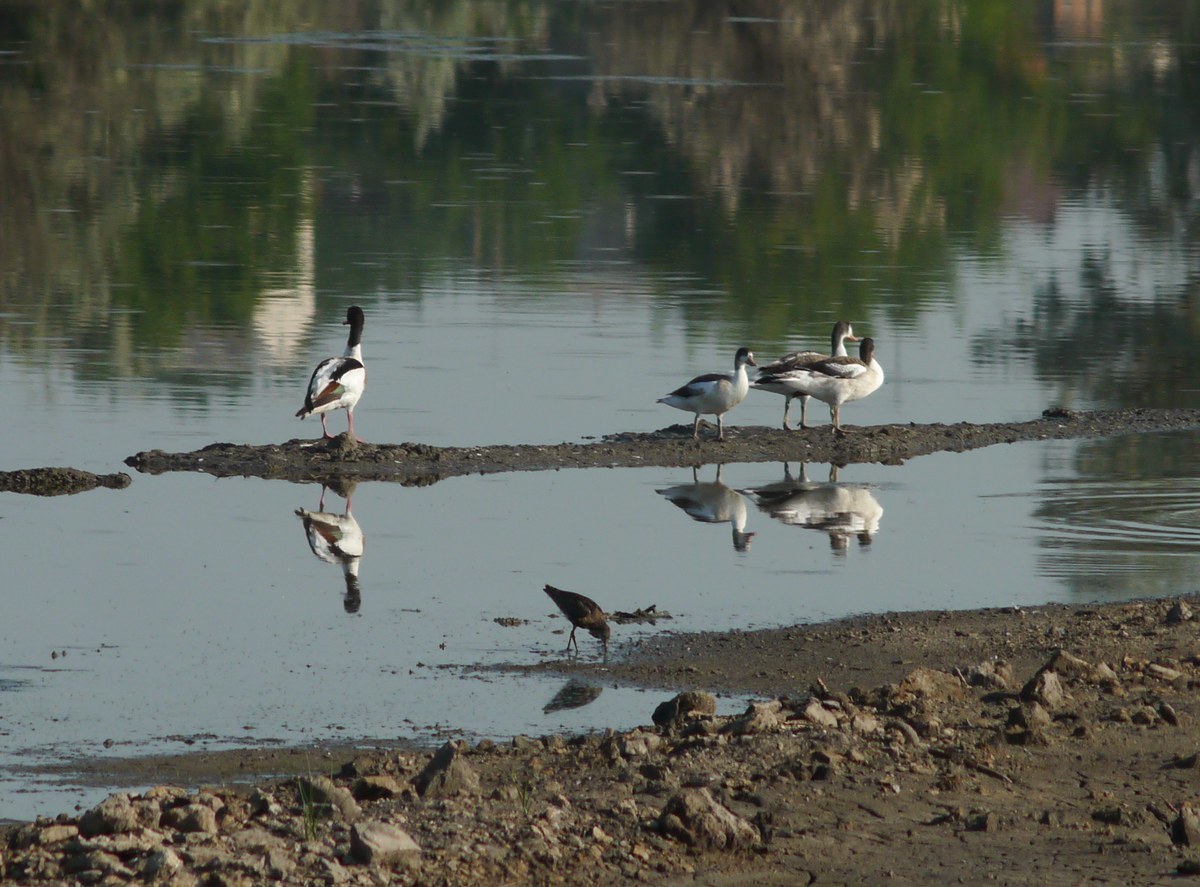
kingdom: Animalia
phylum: Chordata
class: Aves
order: Anseriformes
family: Anatidae
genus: Tadorna
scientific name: Tadorna tadorna
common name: Common shelduck
